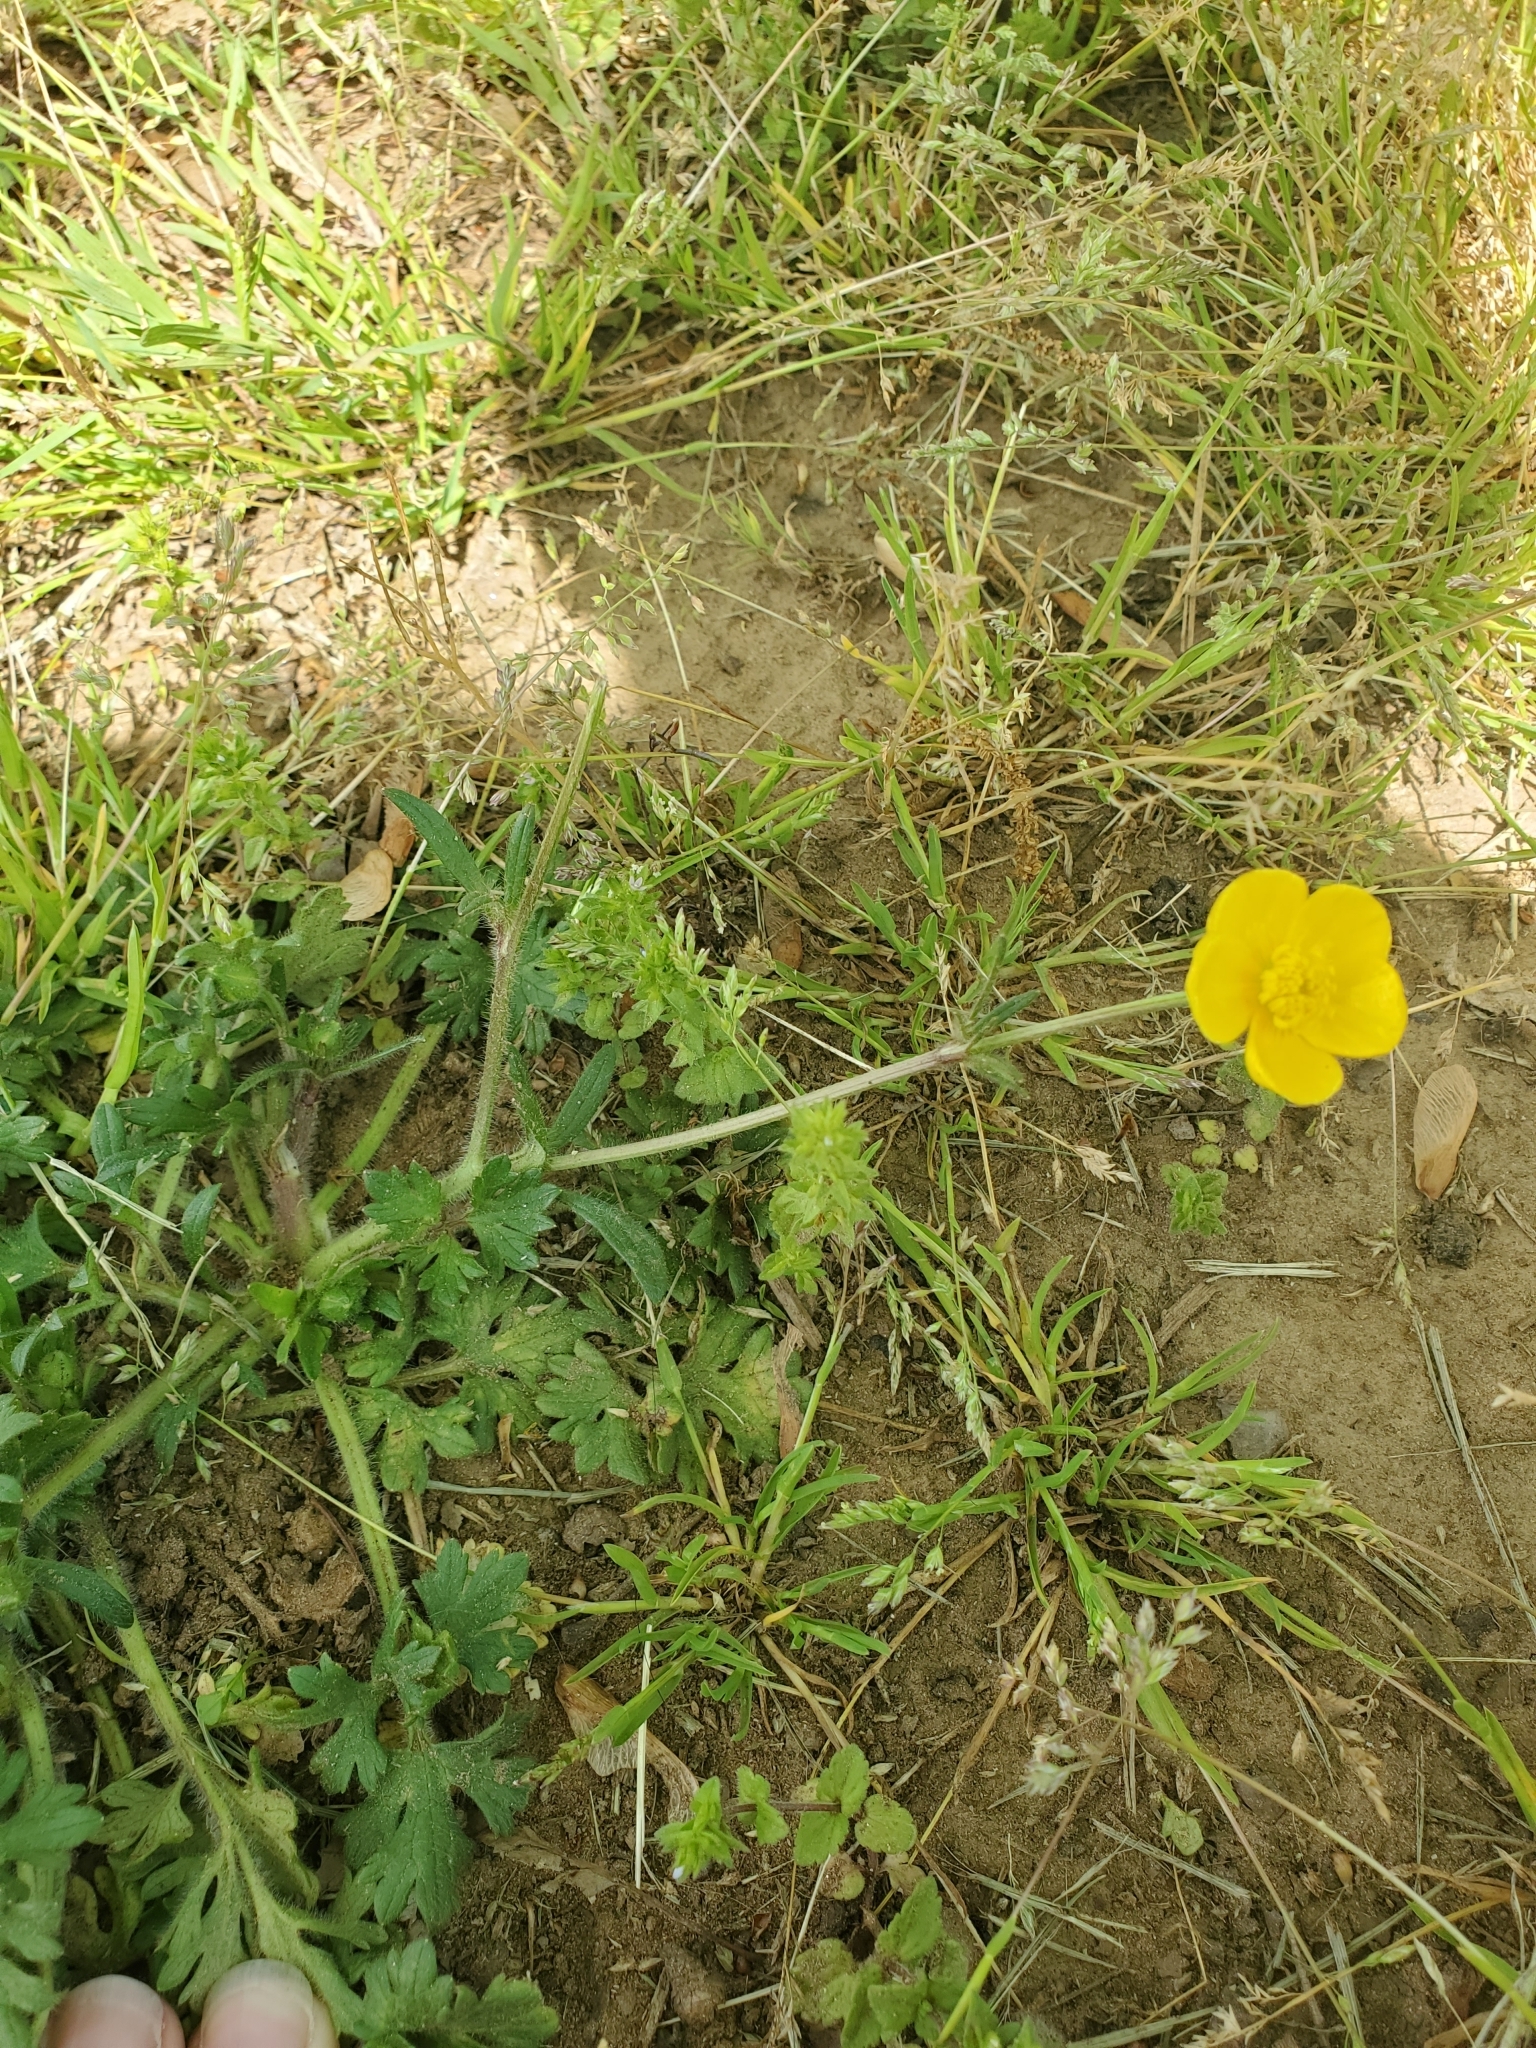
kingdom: Plantae
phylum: Tracheophyta
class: Magnoliopsida
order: Ranunculales
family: Ranunculaceae
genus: Ranunculus
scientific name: Ranunculus bulbosus
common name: Bulbous buttercup
